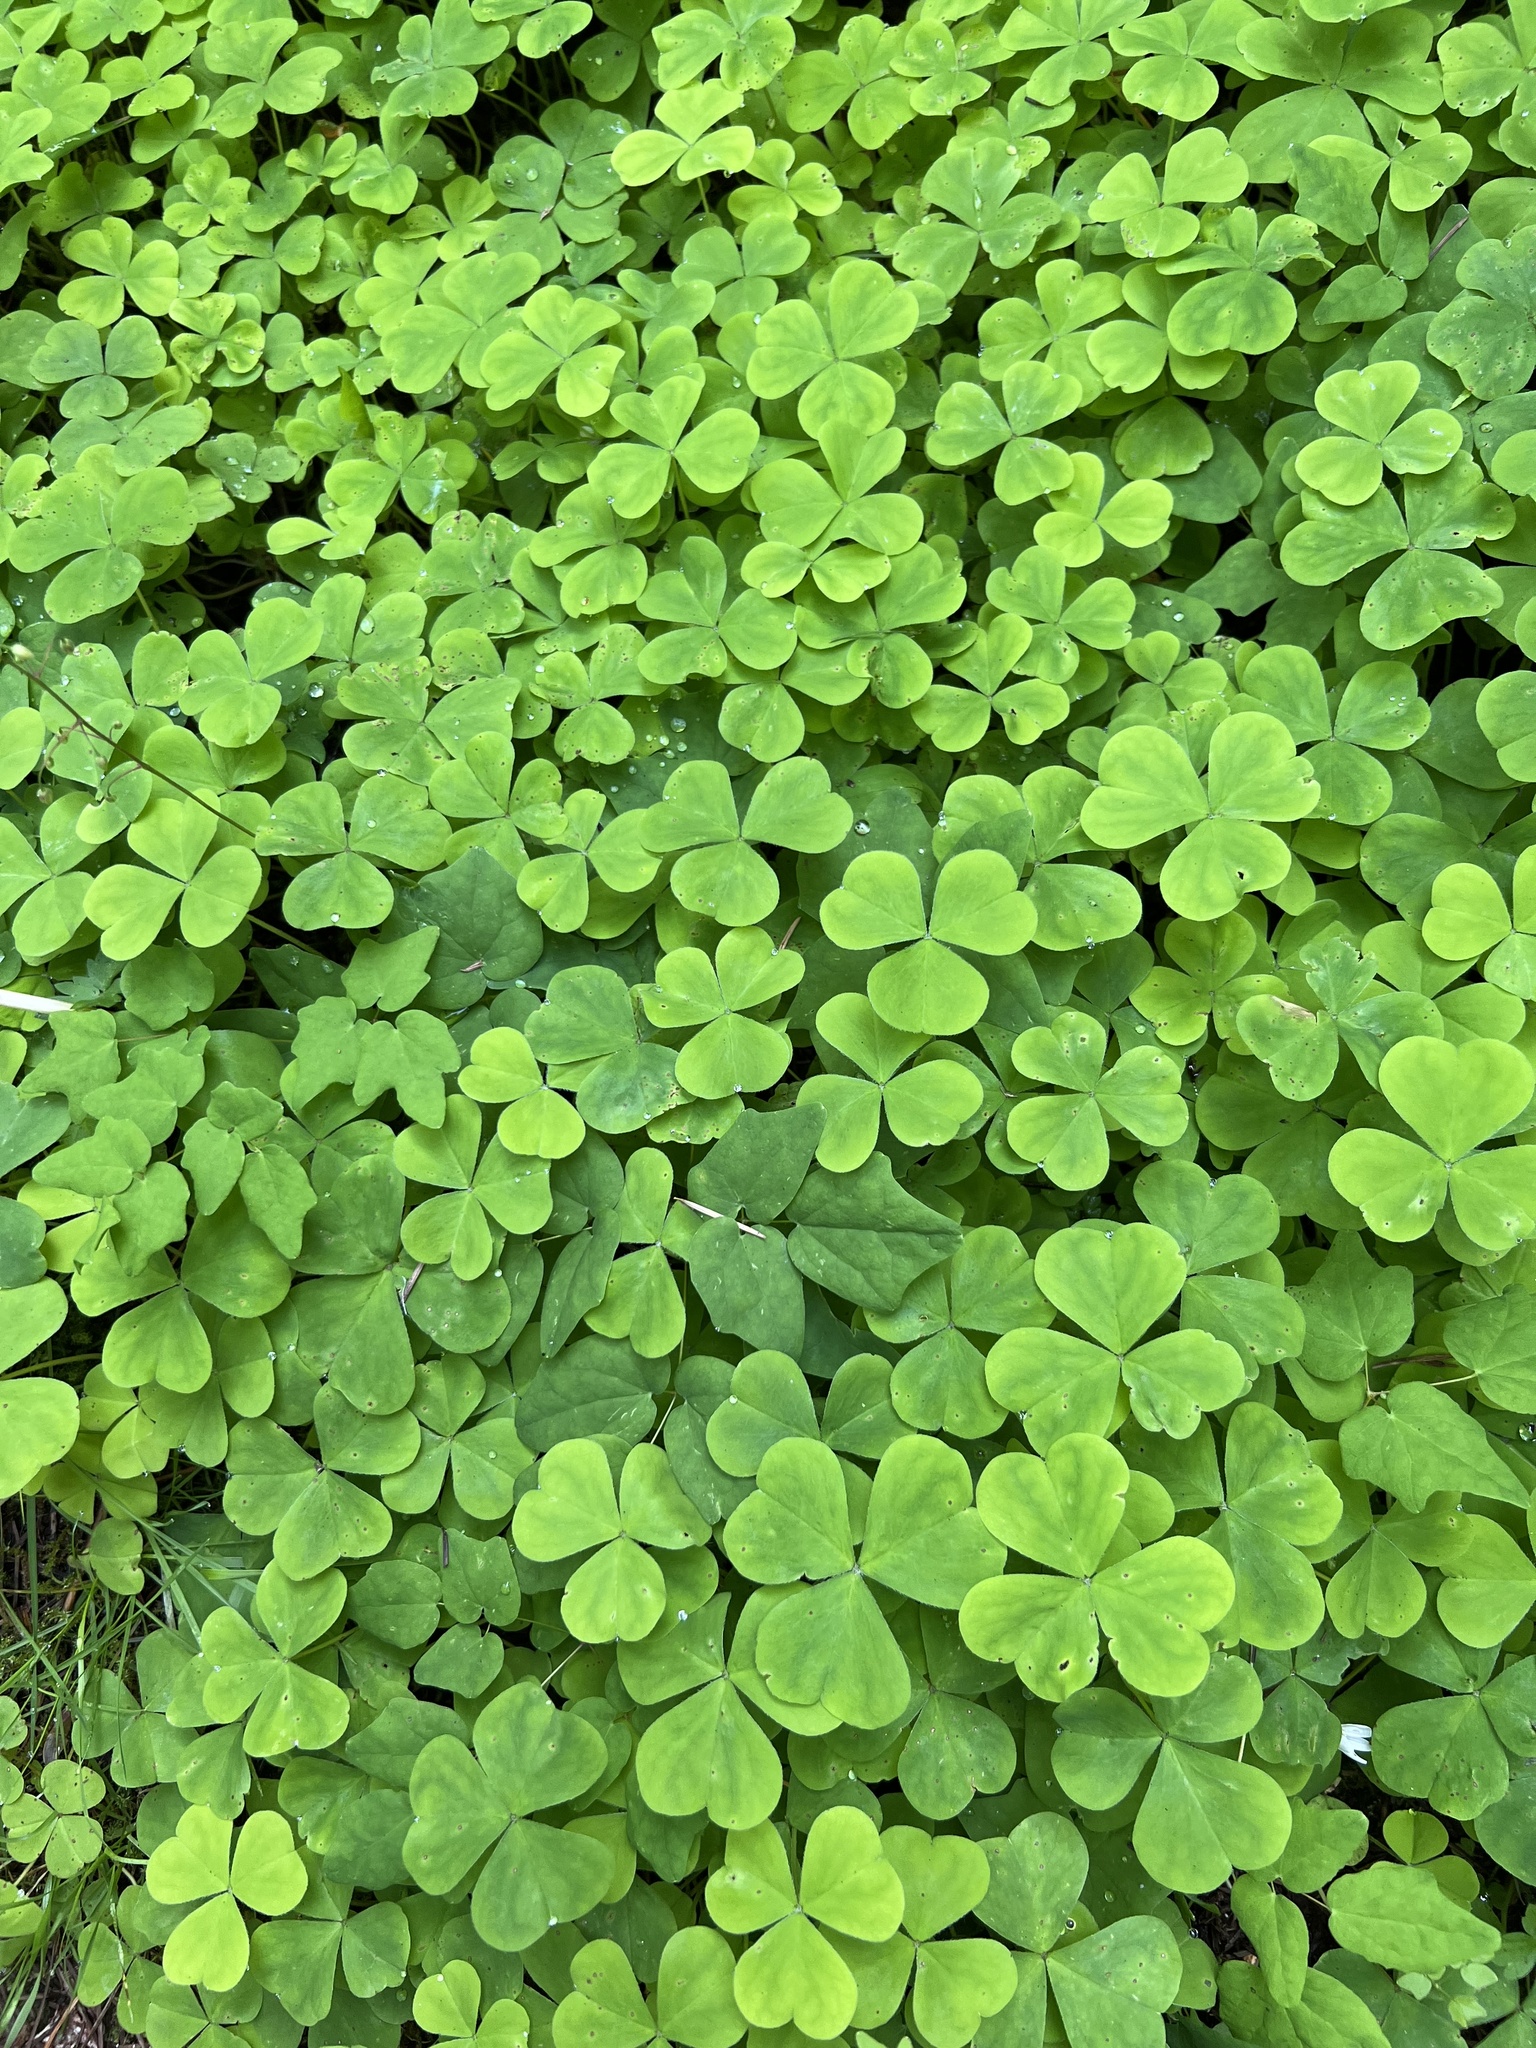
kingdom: Plantae
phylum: Tracheophyta
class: Magnoliopsida
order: Oxalidales
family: Oxalidaceae
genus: Oxalis
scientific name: Oxalis oregana
